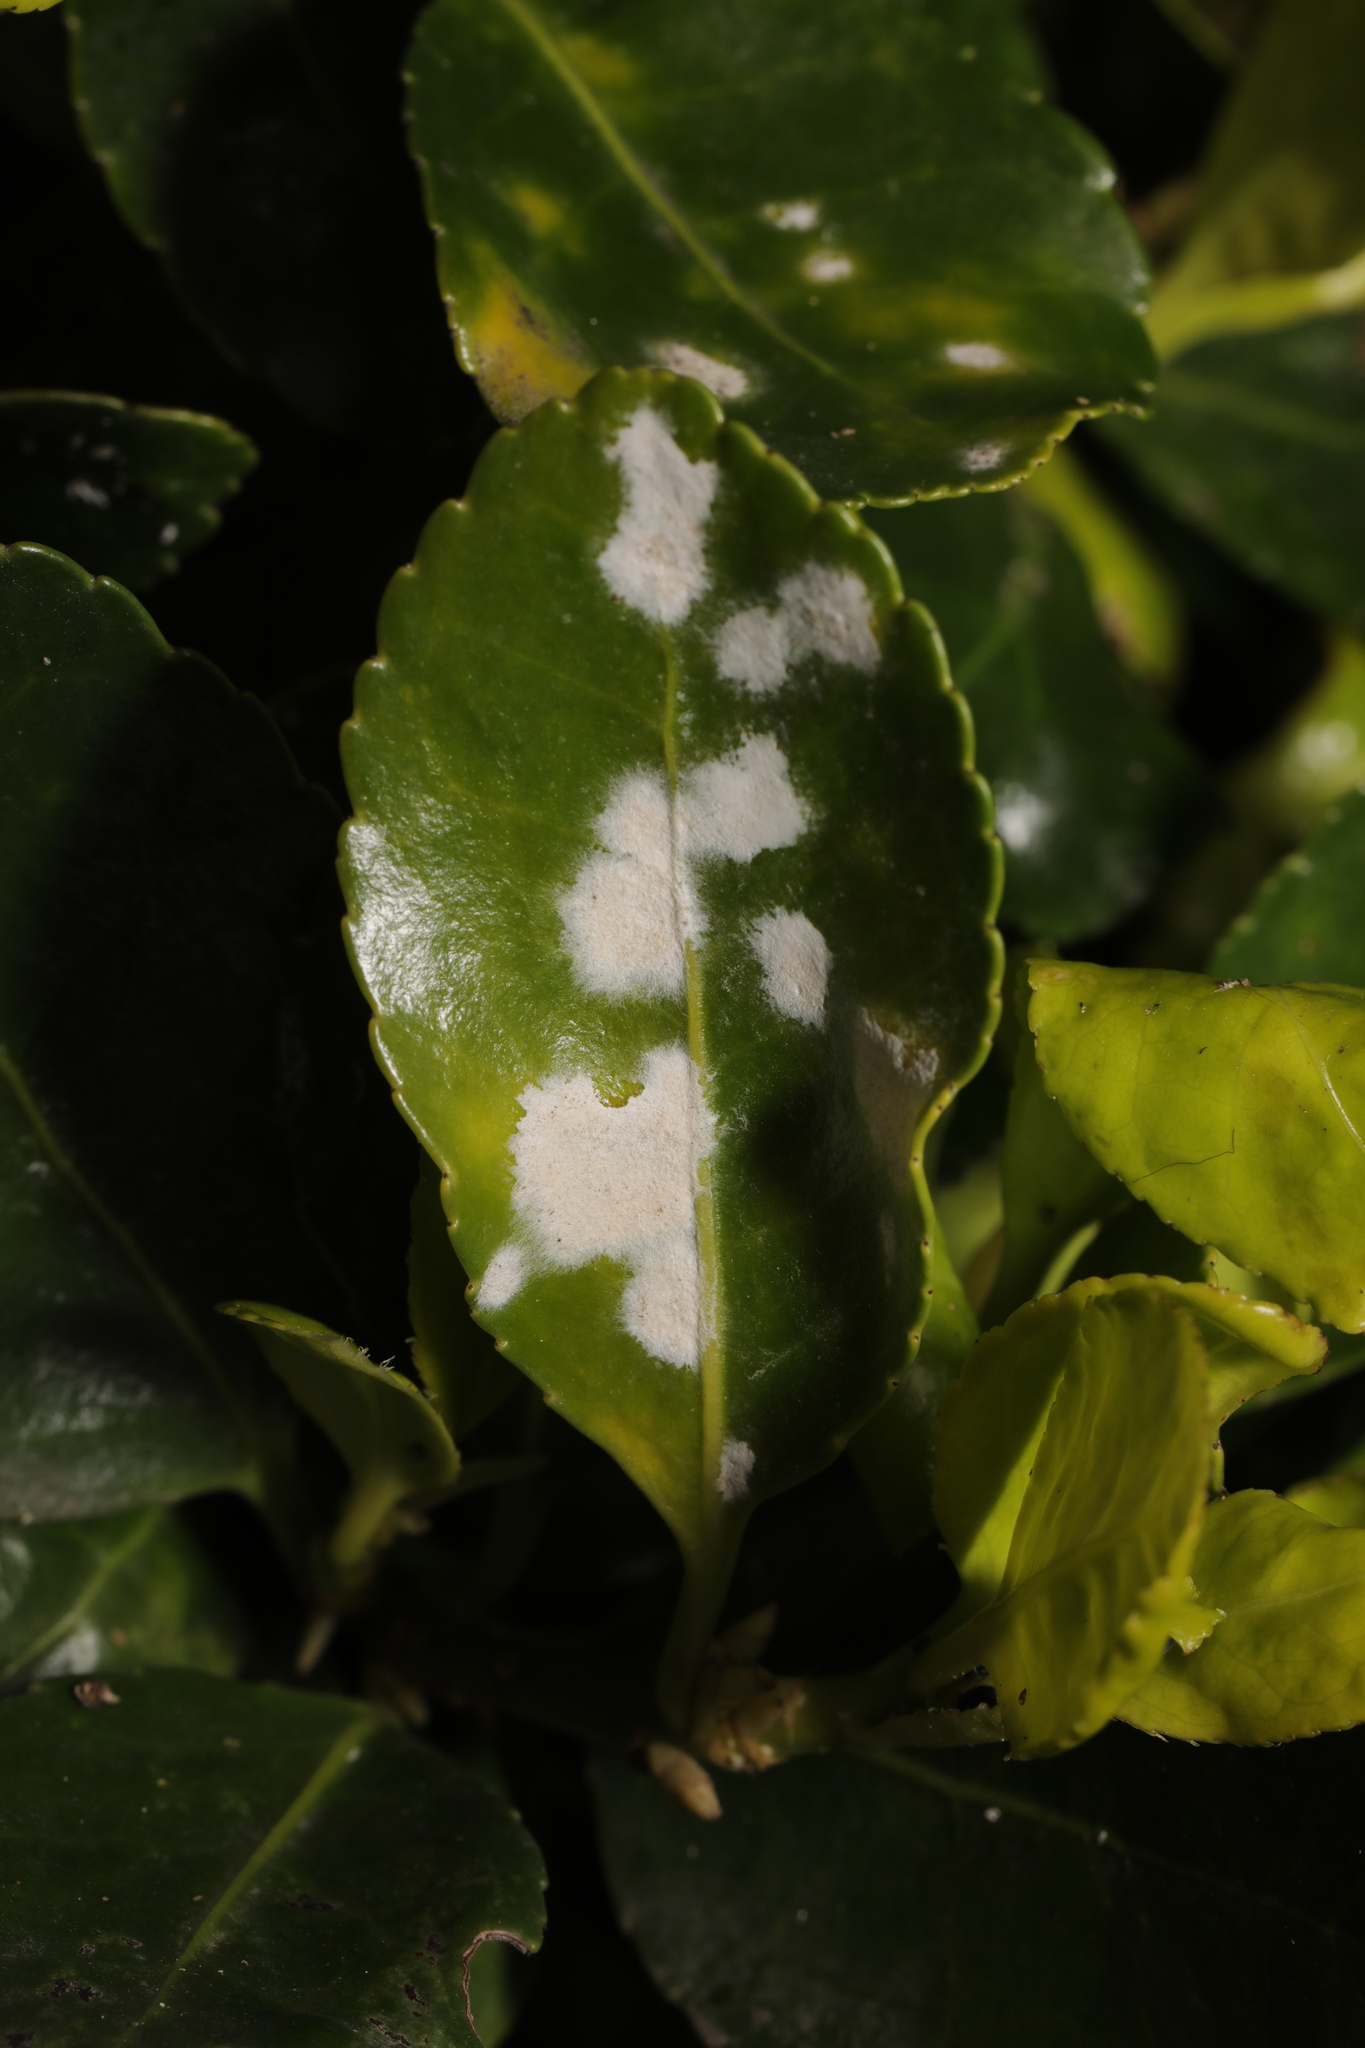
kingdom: Fungi
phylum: Ascomycota
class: Leotiomycetes
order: Helotiales
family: Erysiphaceae
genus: Erysiphe
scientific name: Erysiphe euonymicola
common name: Spindletree mildew
